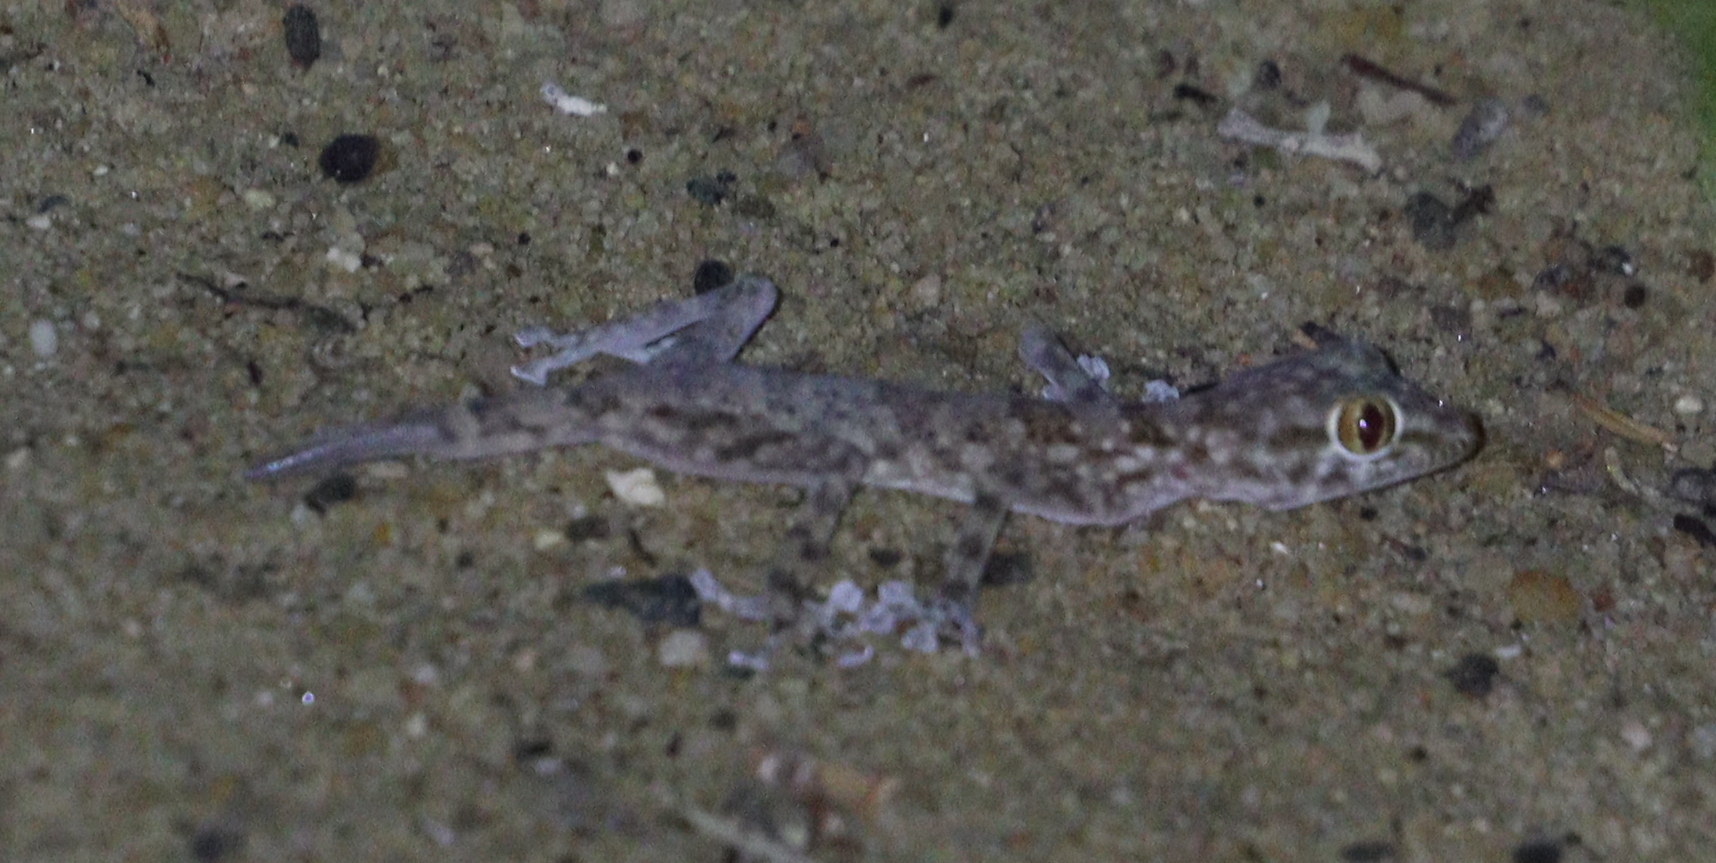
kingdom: Animalia
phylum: Chordata
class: Squamata
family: Phyllodactylidae
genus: Ptyodactylus
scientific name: Ptyodactylus hasselquistii
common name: Hasselquist’s fan-footed gecko
